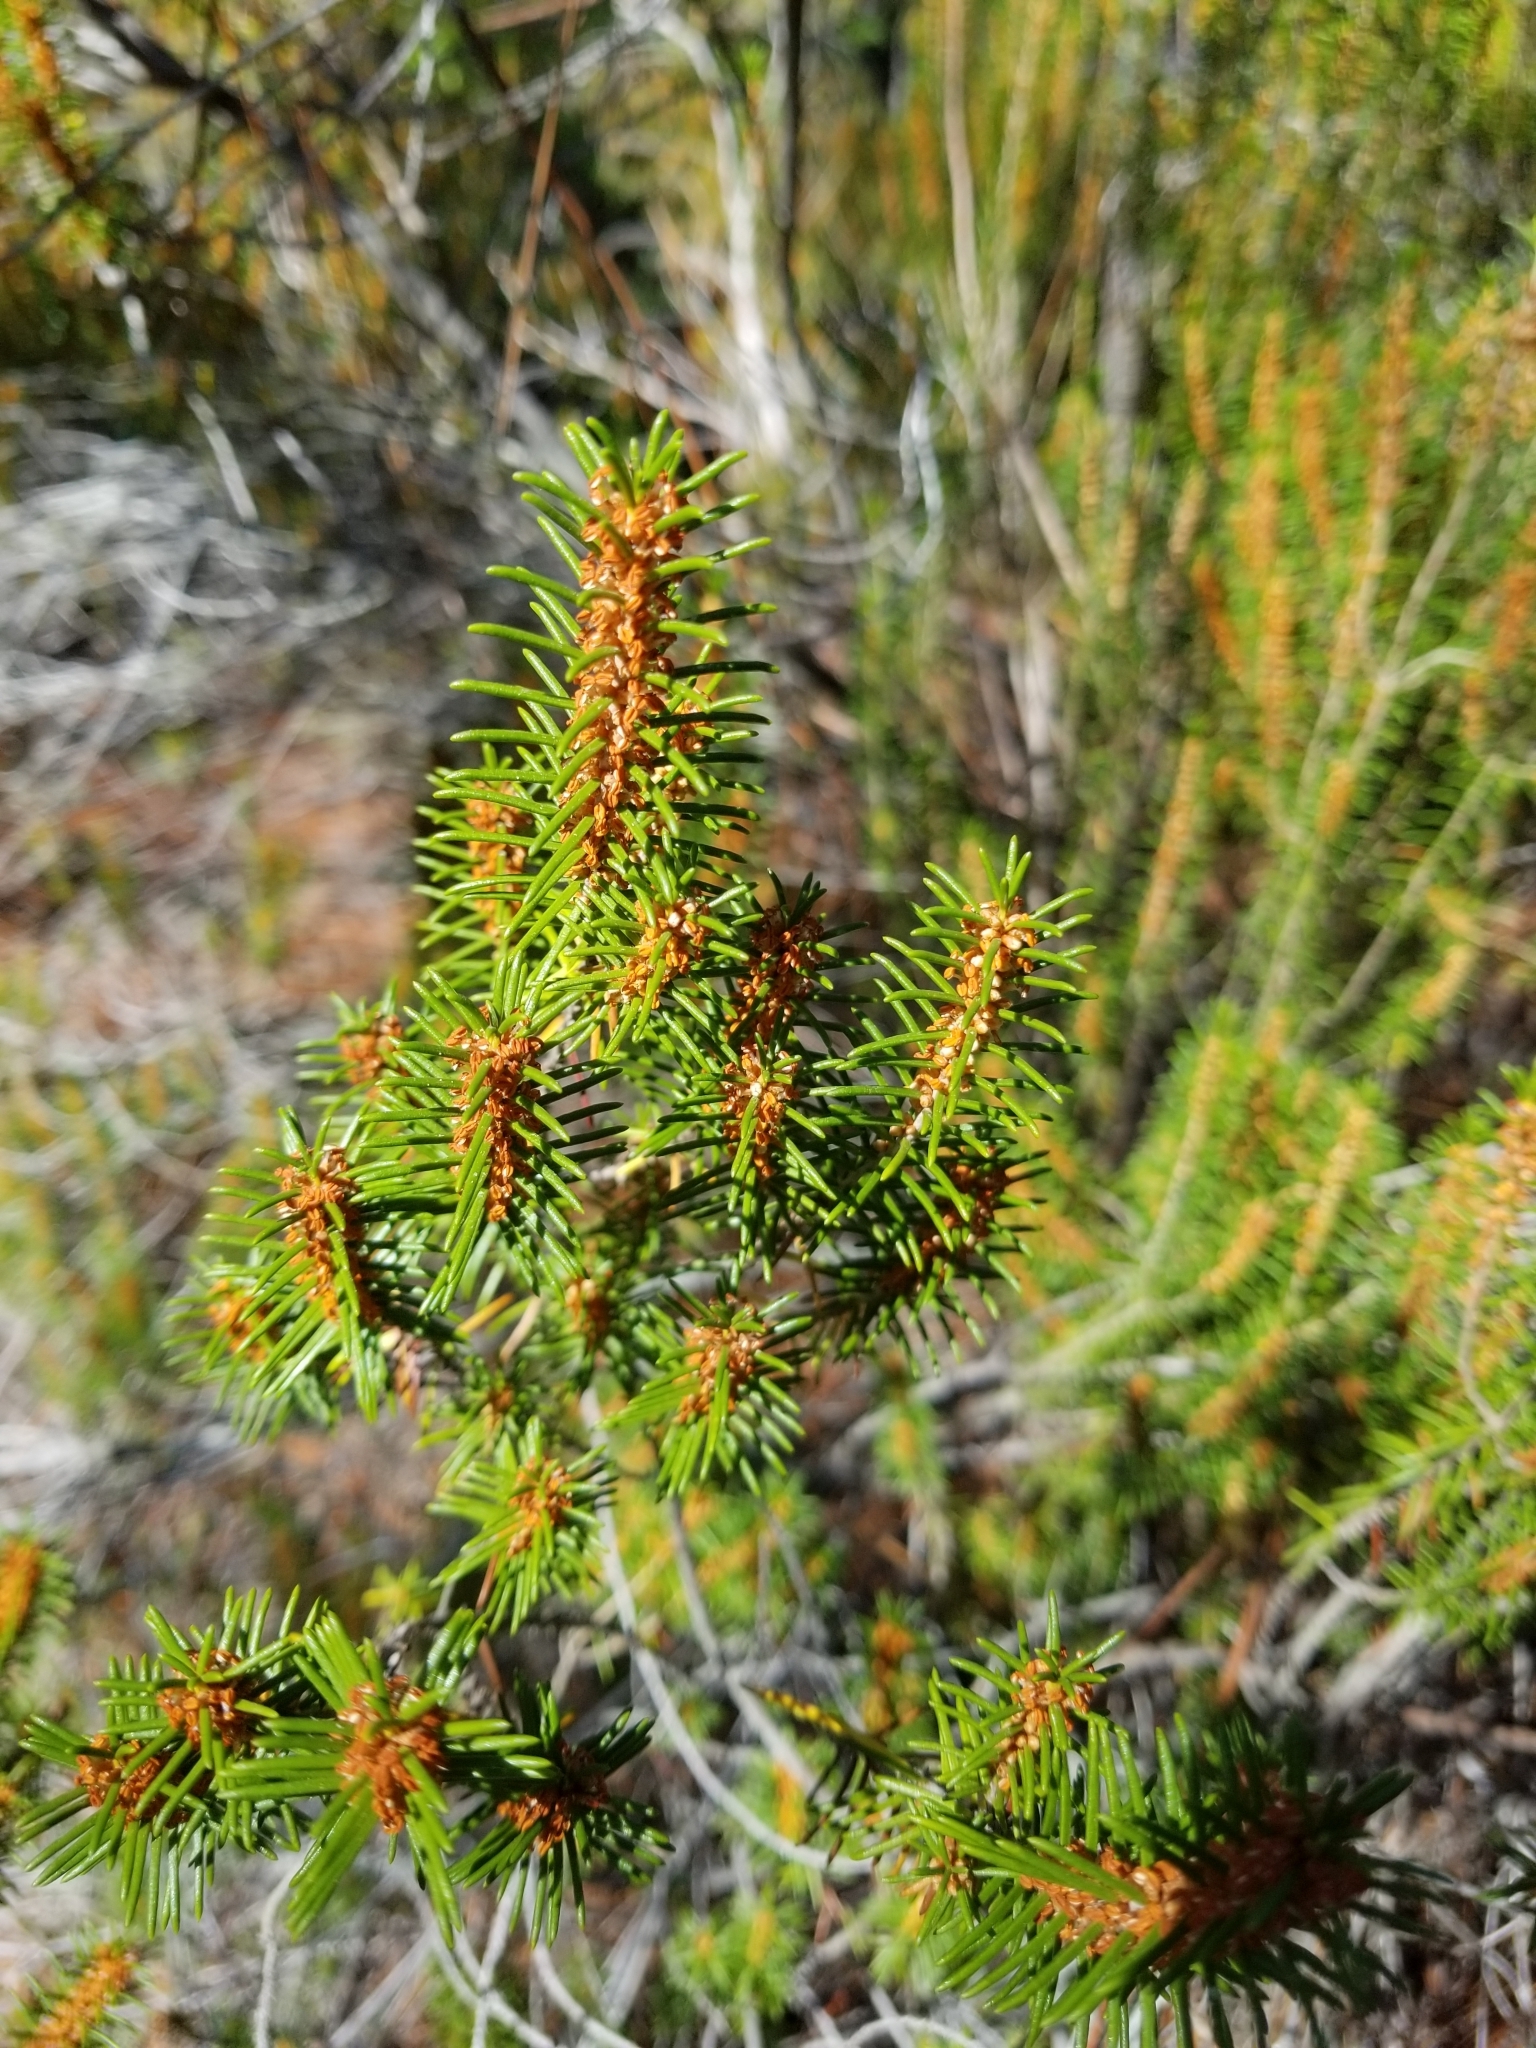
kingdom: Plantae
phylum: Tracheophyta
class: Magnoliopsida
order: Ericales
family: Ericaceae
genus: Ceratiola
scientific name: Ceratiola ericoides
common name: Sandhill-rosemary
